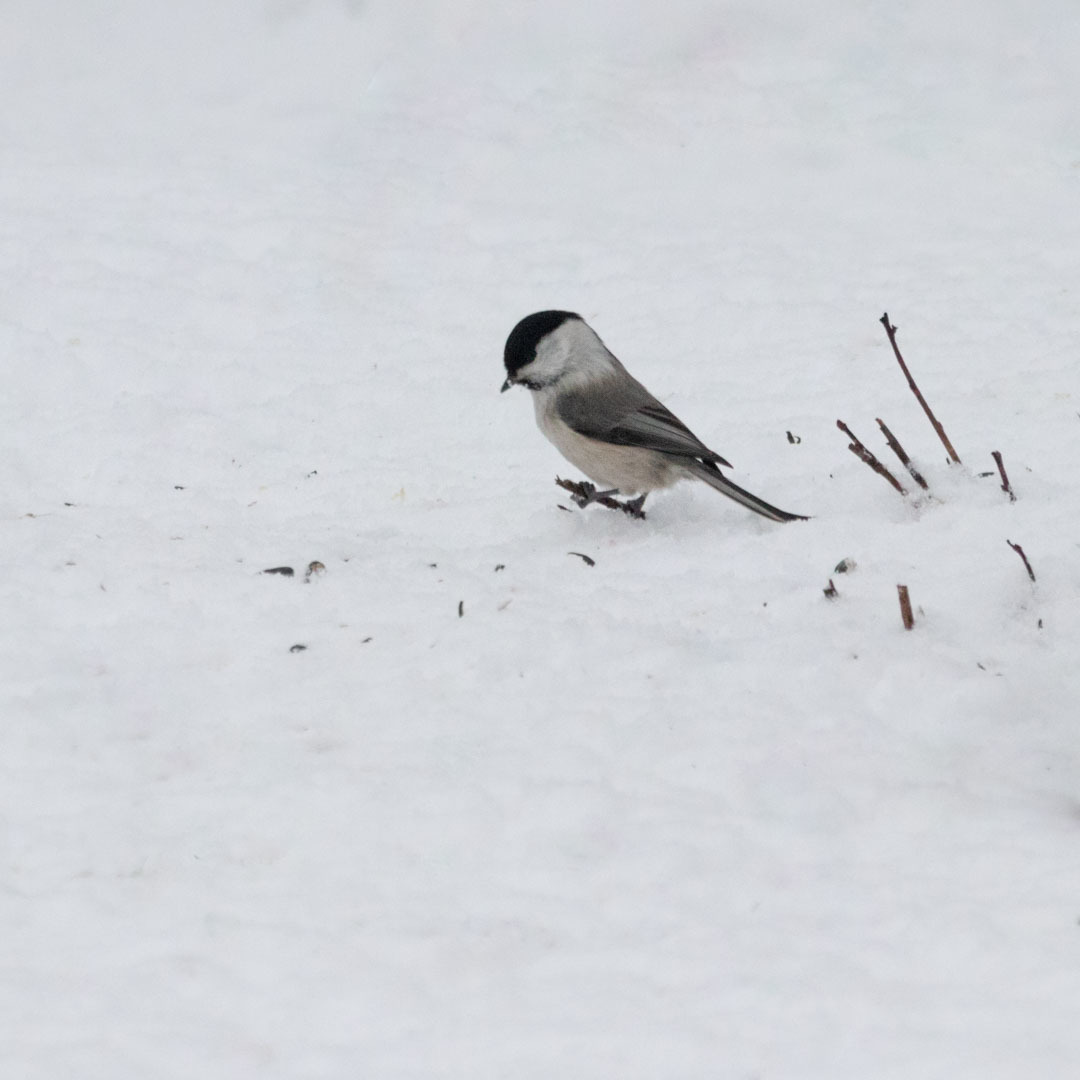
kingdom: Animalia
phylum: Chordata
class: Aves
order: Passeriformes
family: Paridae
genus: Poecile
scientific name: Poecile montanus
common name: Willow tit
